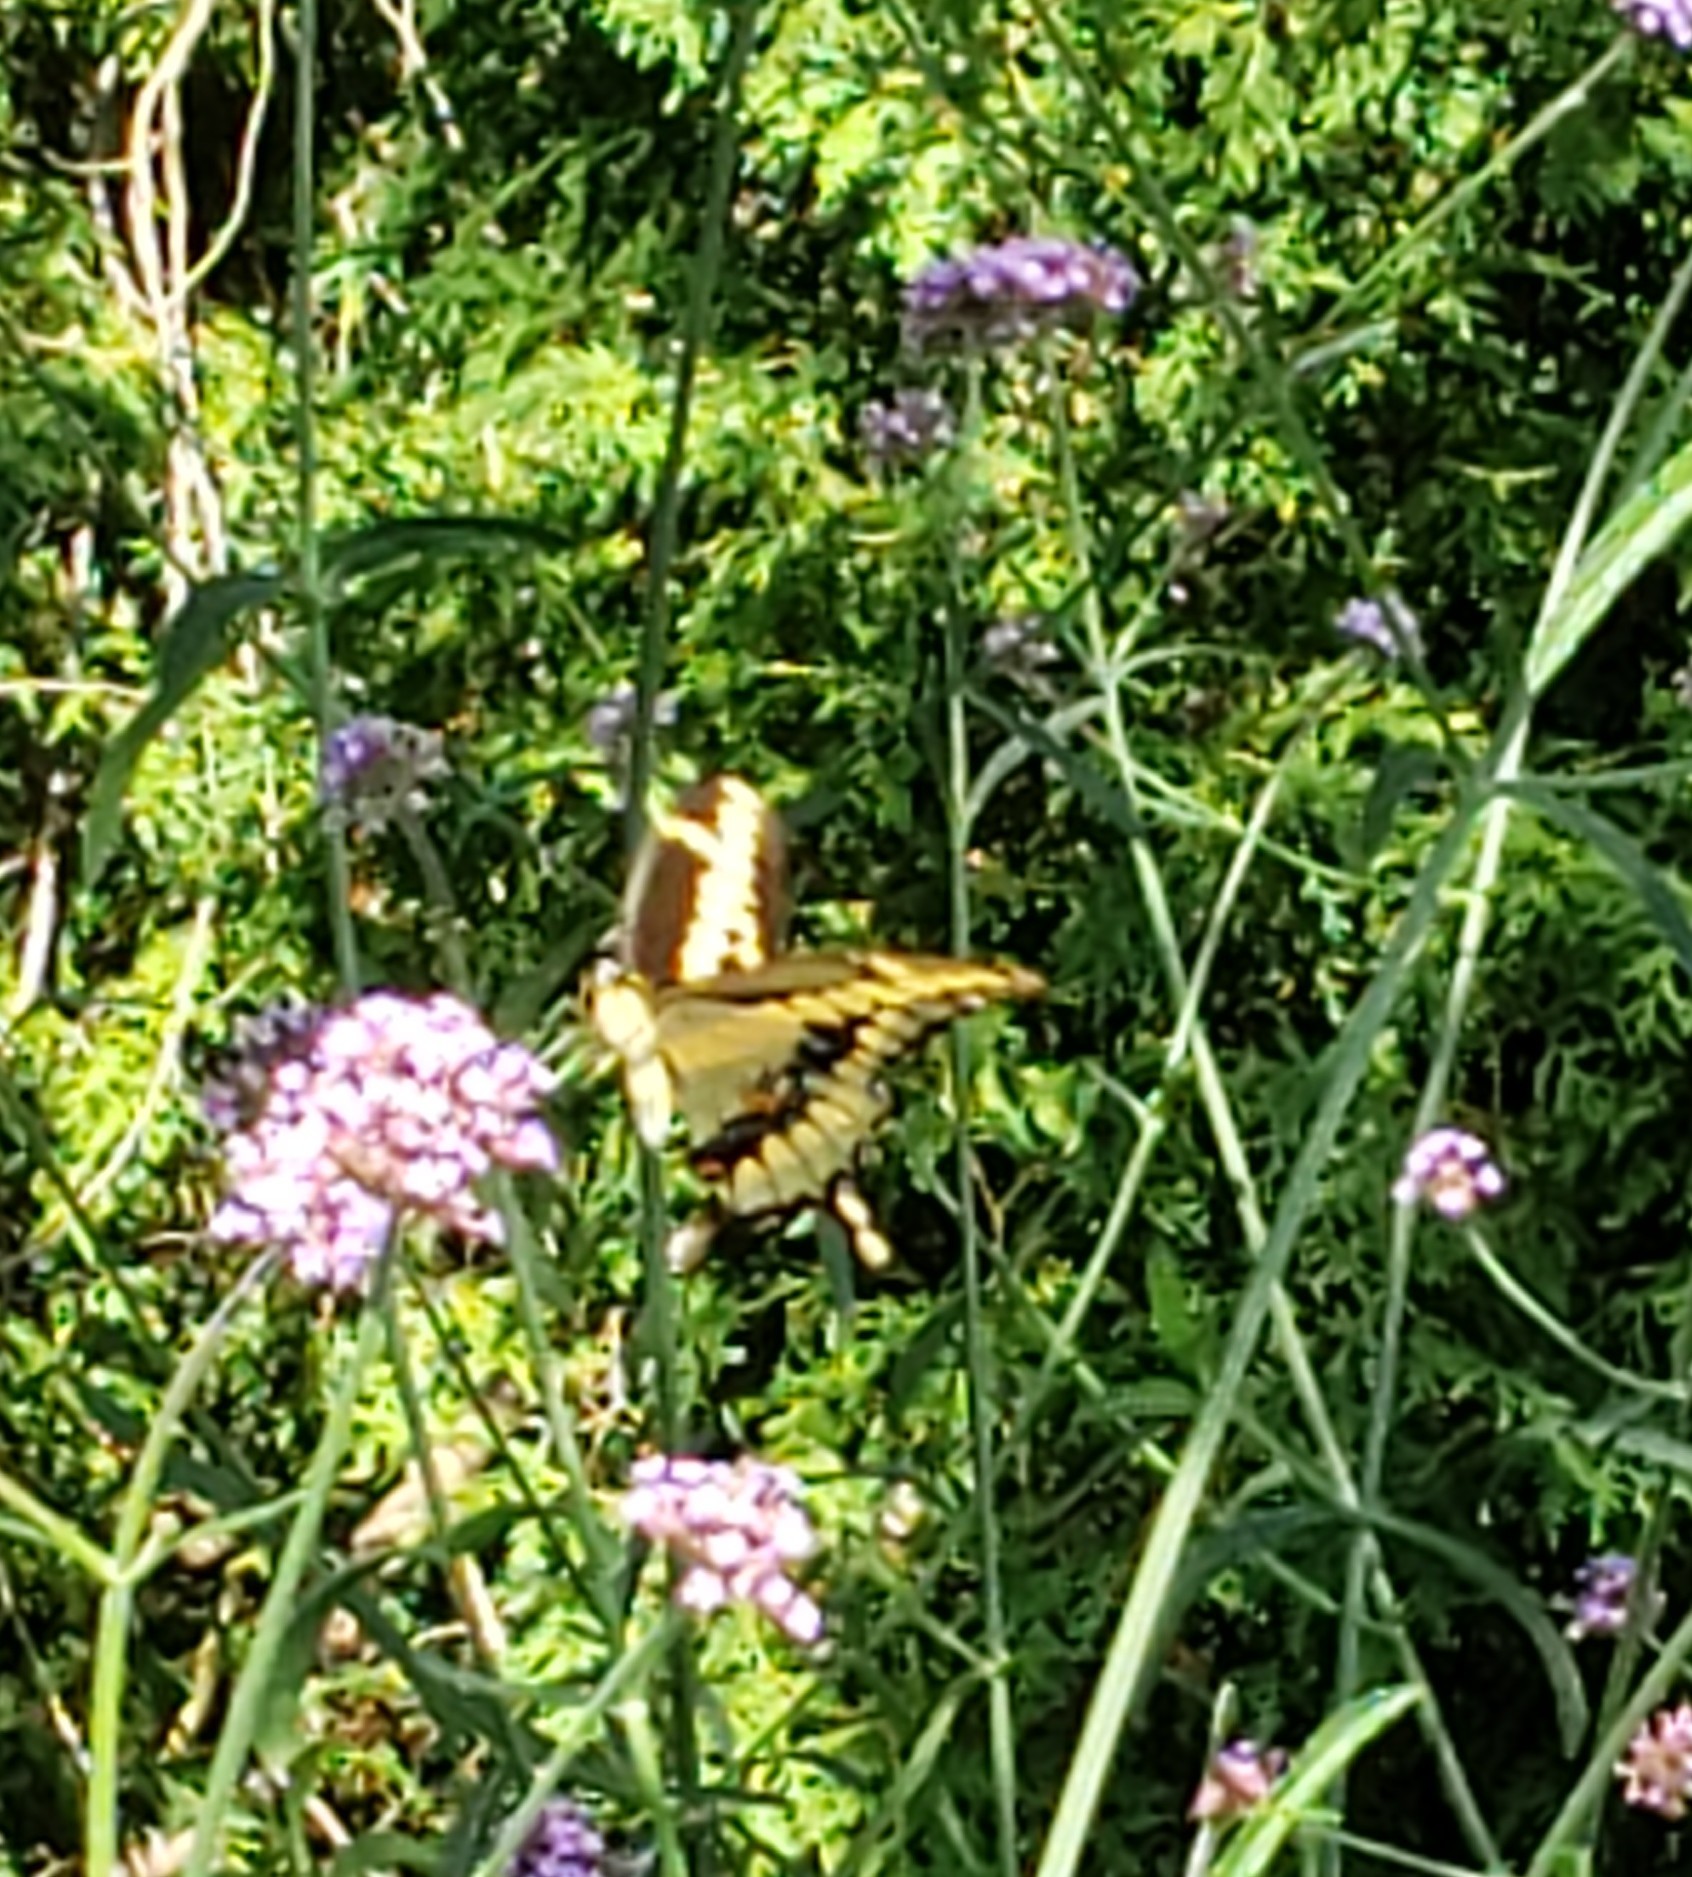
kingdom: Animalia
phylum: Arthropoda
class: Insecta
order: Lepidoptera
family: Papilionidae
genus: Papilio
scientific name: Papilio cresphontes
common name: Giant swallowtail
